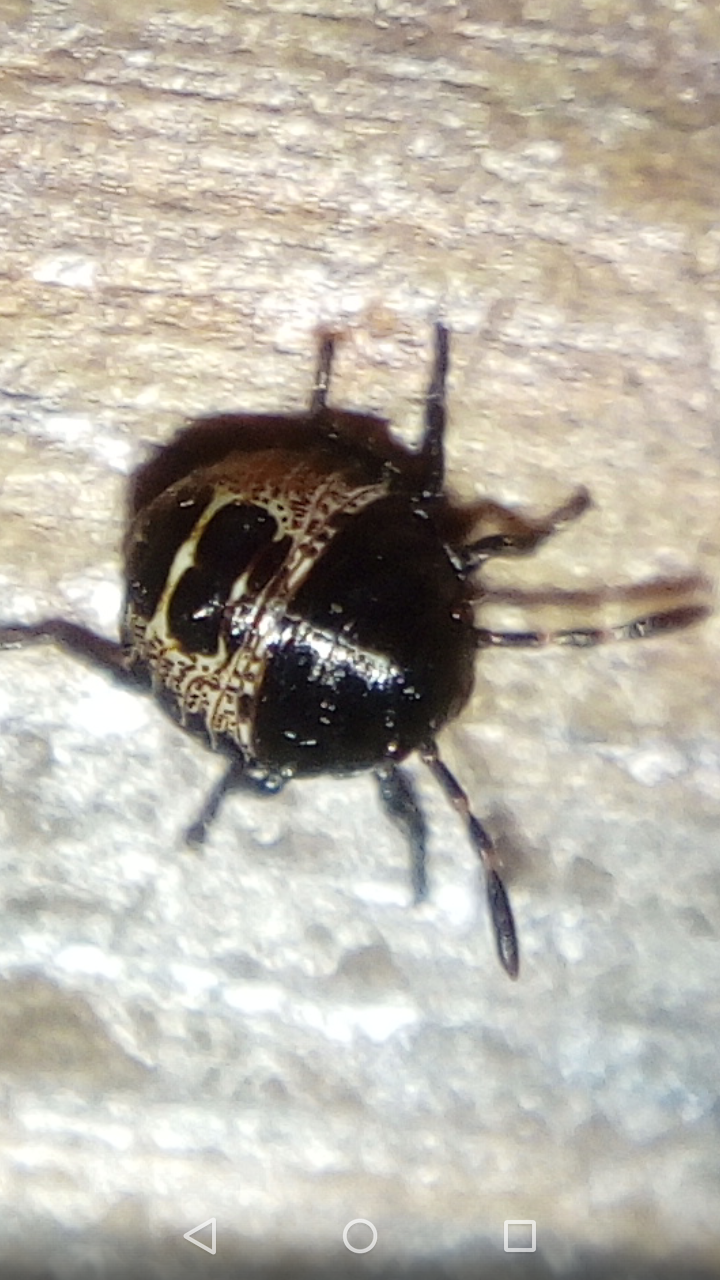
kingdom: Animalia
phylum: Arthropoda
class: Insecta
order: Hemiptera
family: Pentatomidae
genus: Rhaphigaster
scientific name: Rhaphigaster nebulosa
